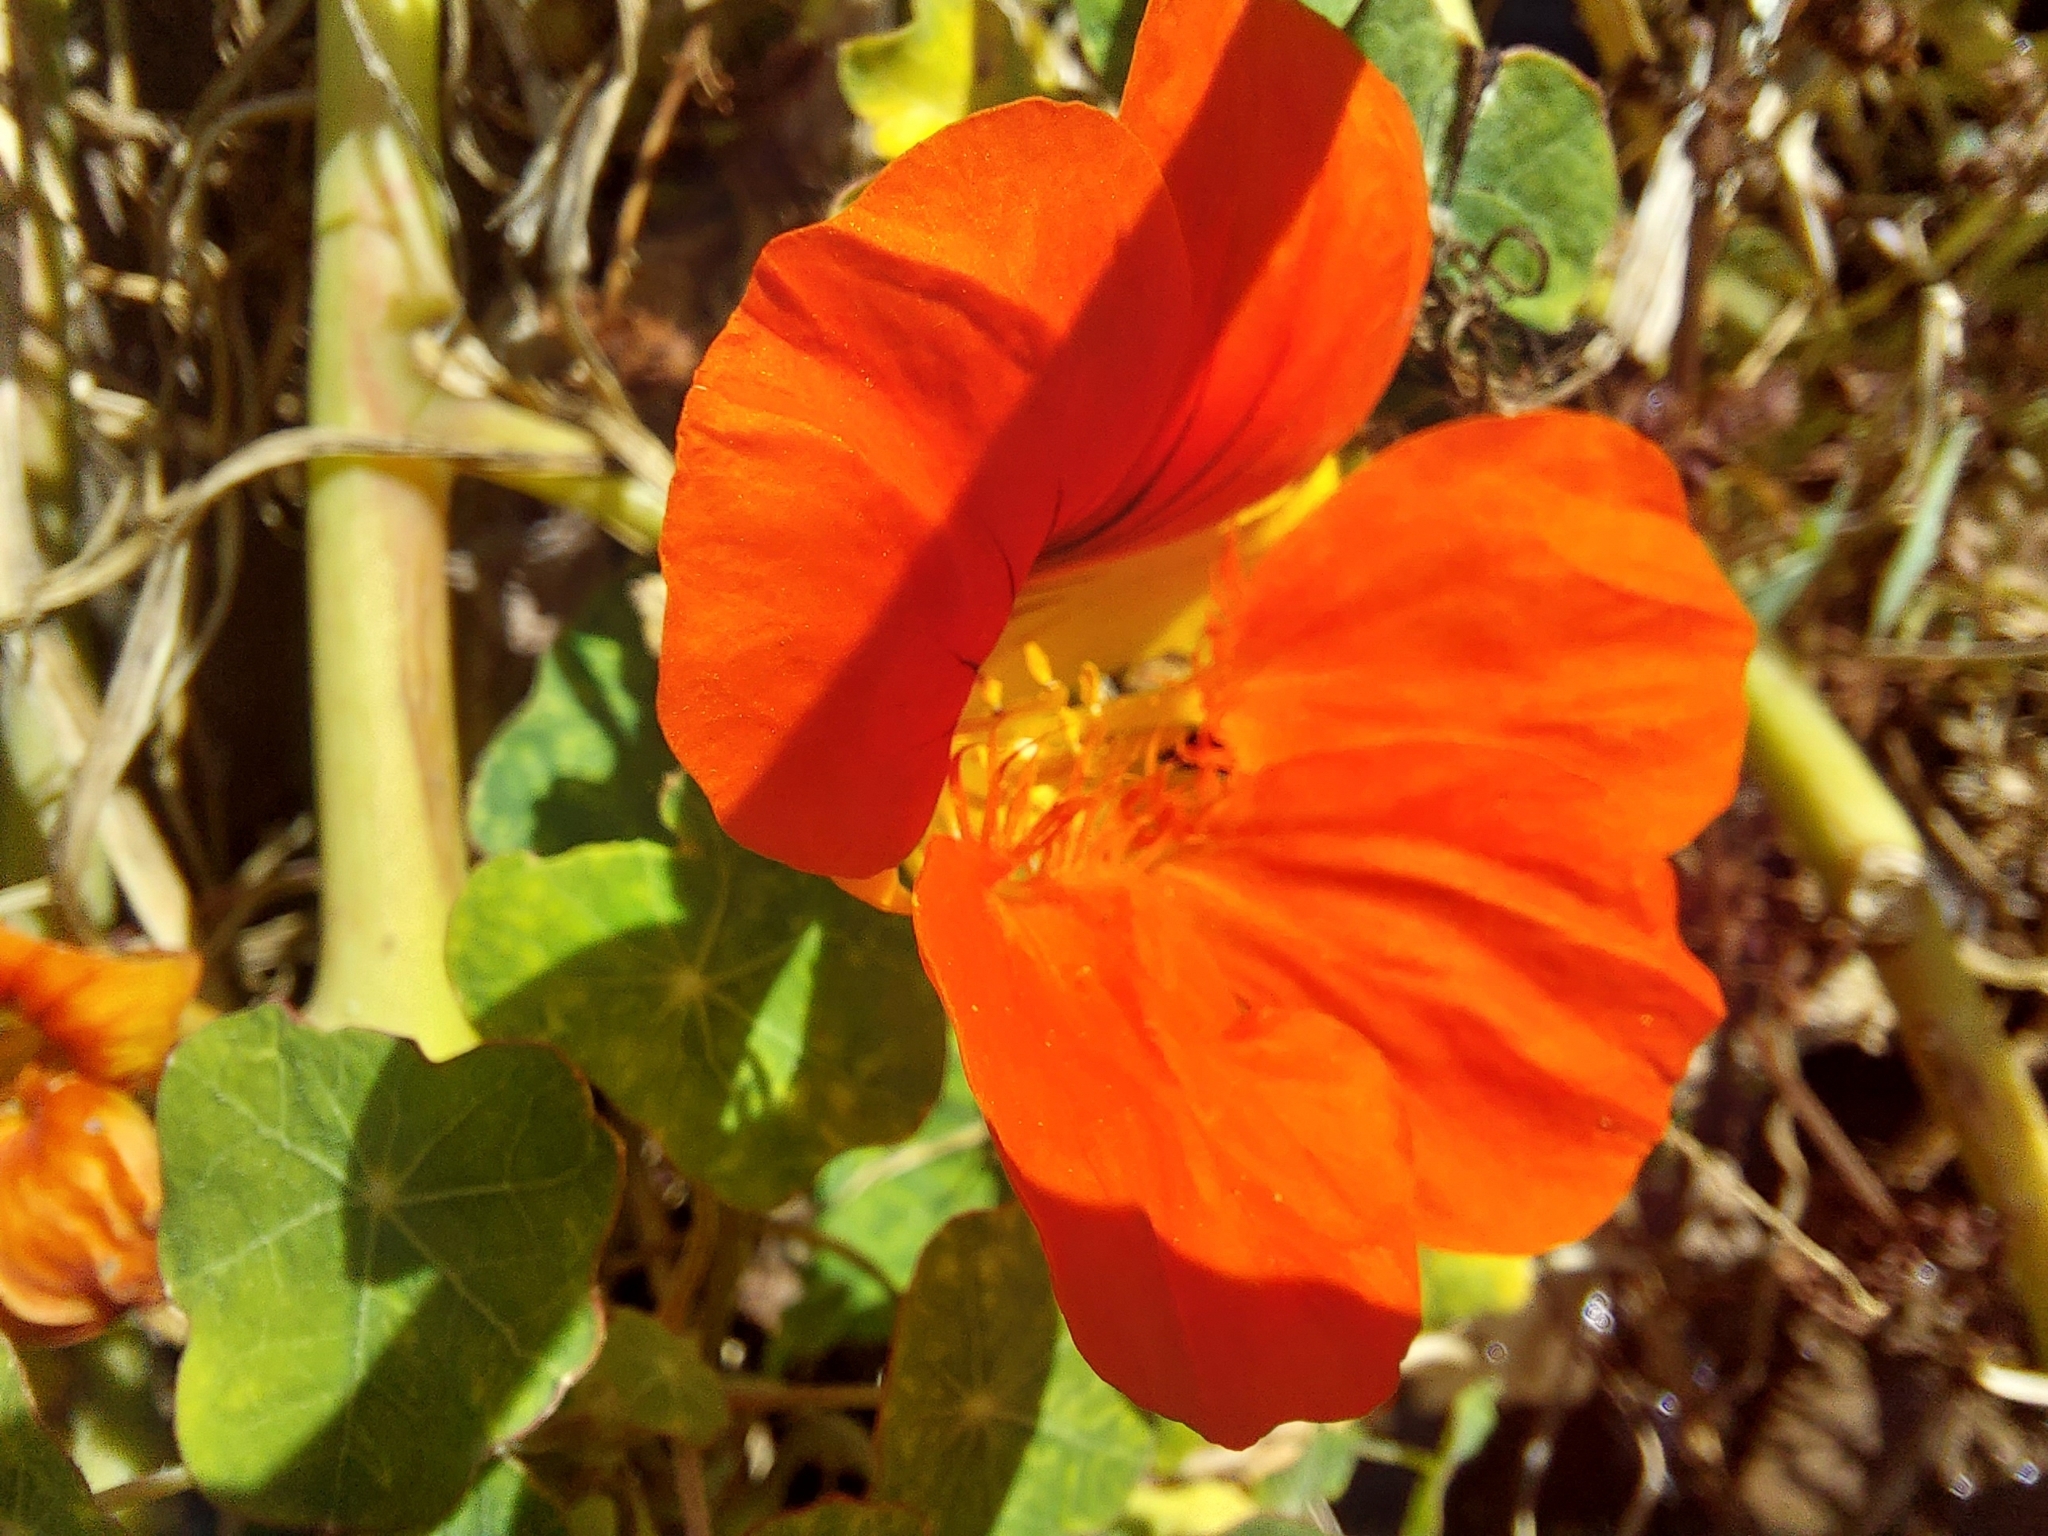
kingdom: Plantae
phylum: Tracheophyta
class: Magnoliopsida
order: Brassicales
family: Tropaeolaceae
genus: Tropaeolum
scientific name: Tropaeolum majus
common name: Nasturtium
